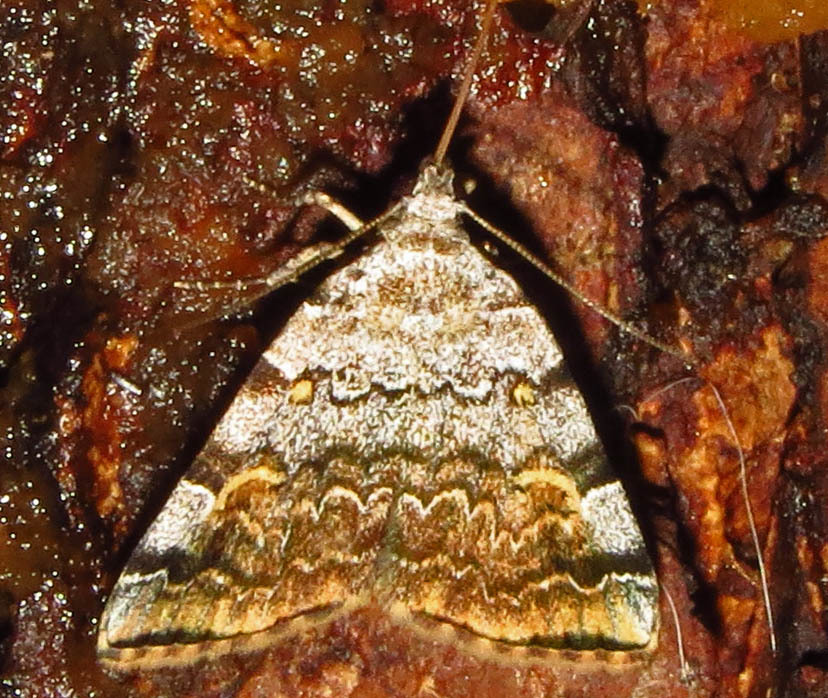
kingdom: Animalia
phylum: Arthropoda
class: Insecta
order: Lepidoptera
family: Erebidae
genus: Idia
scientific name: Idia americalis
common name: American idia moth
